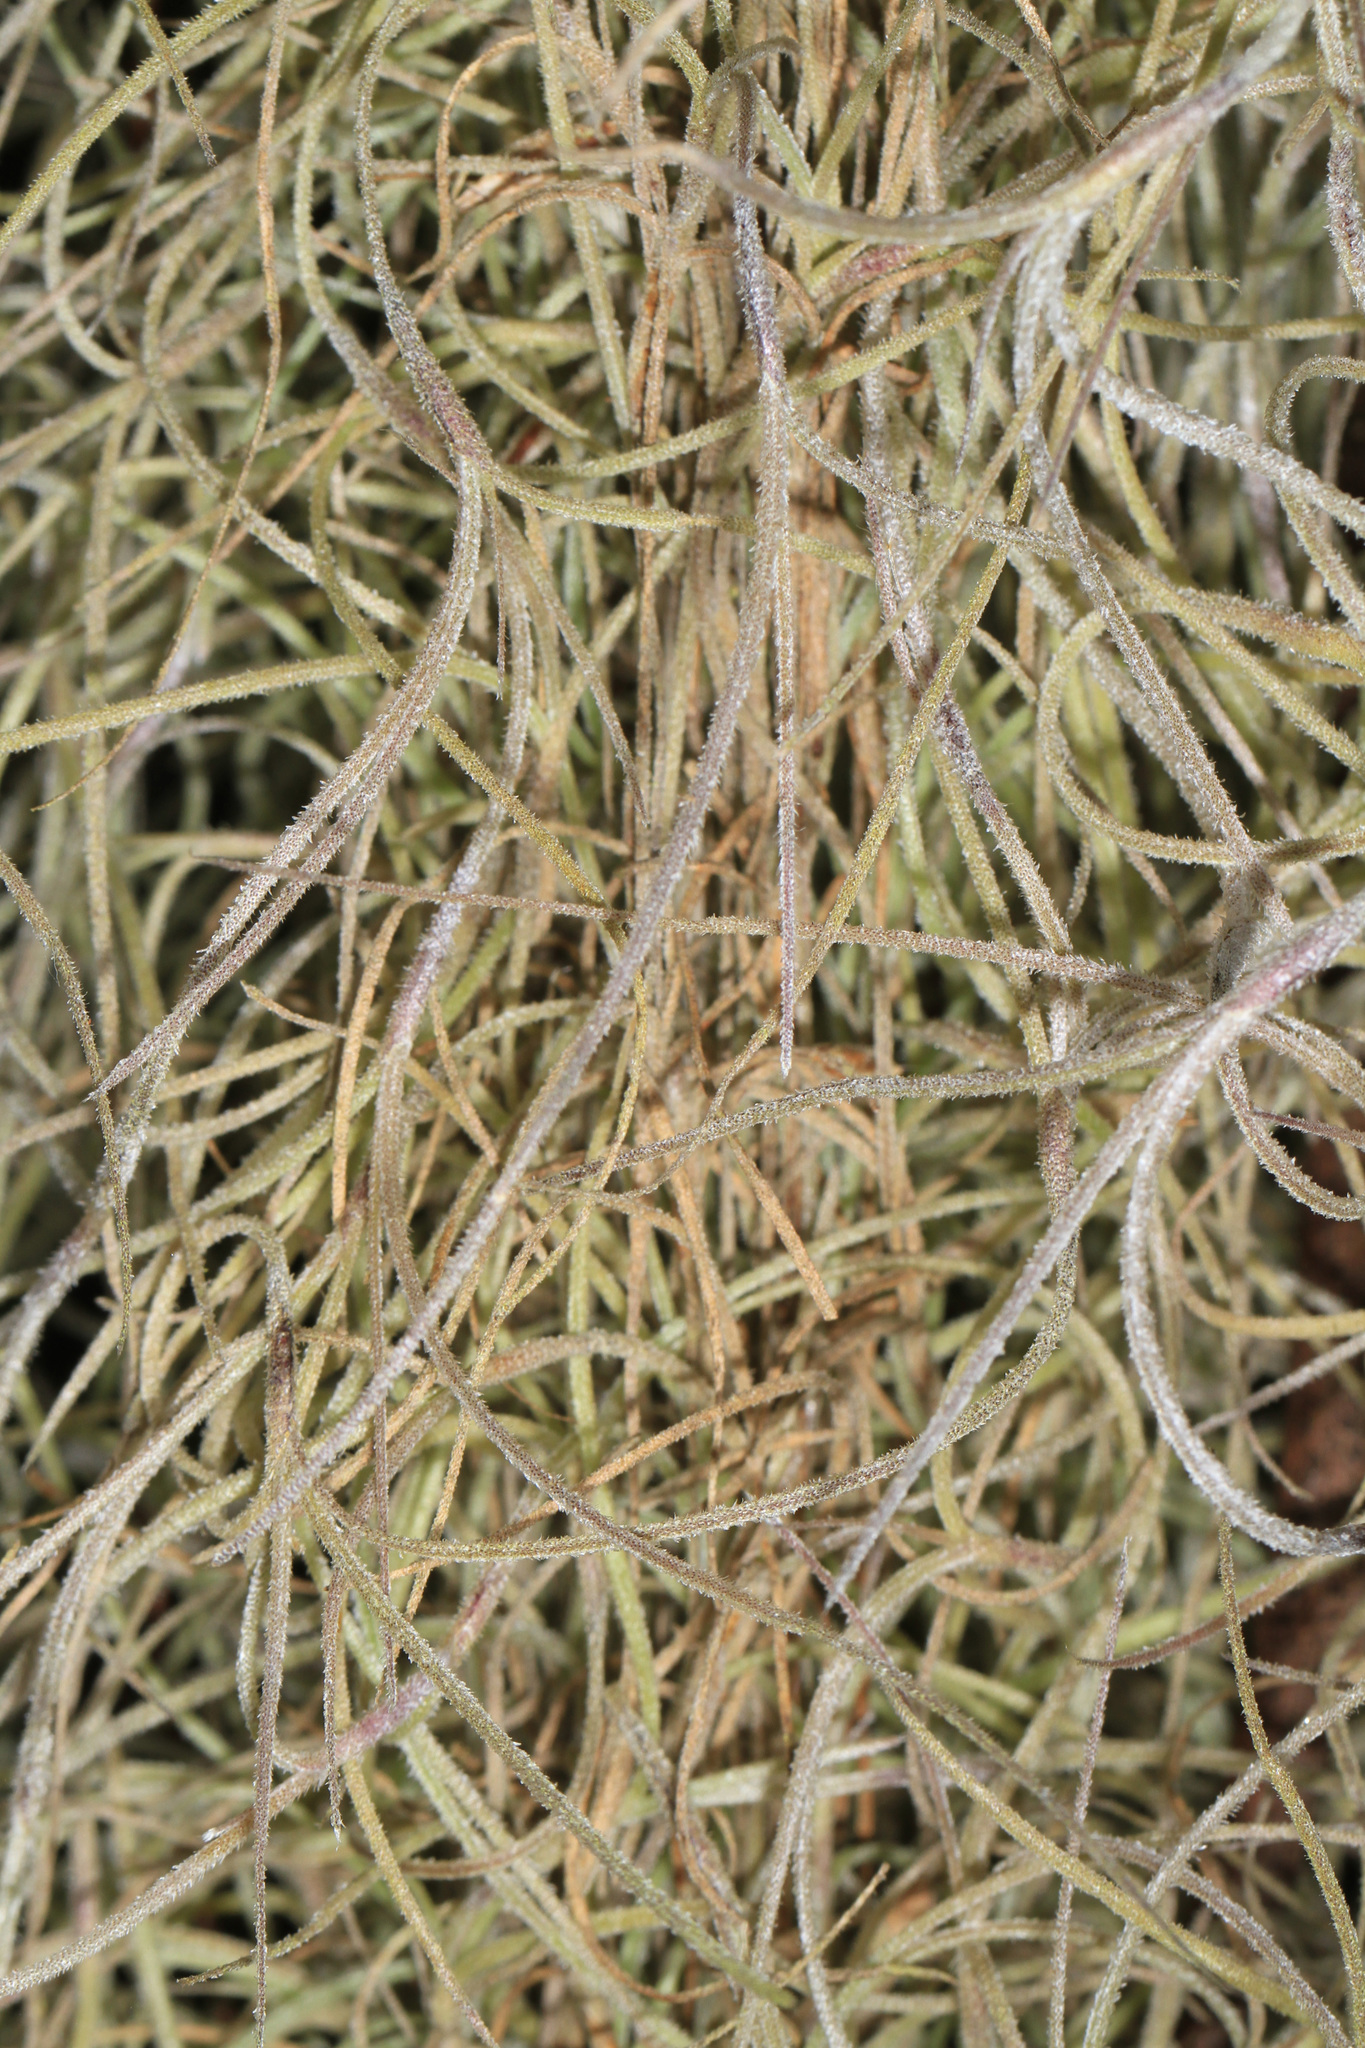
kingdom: Plantae
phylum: Tracheophyta
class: Liliopsida
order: Poales
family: Bromeliaceae
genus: Tillandsia
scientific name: Tillandsia usneoides
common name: Spanish moss
